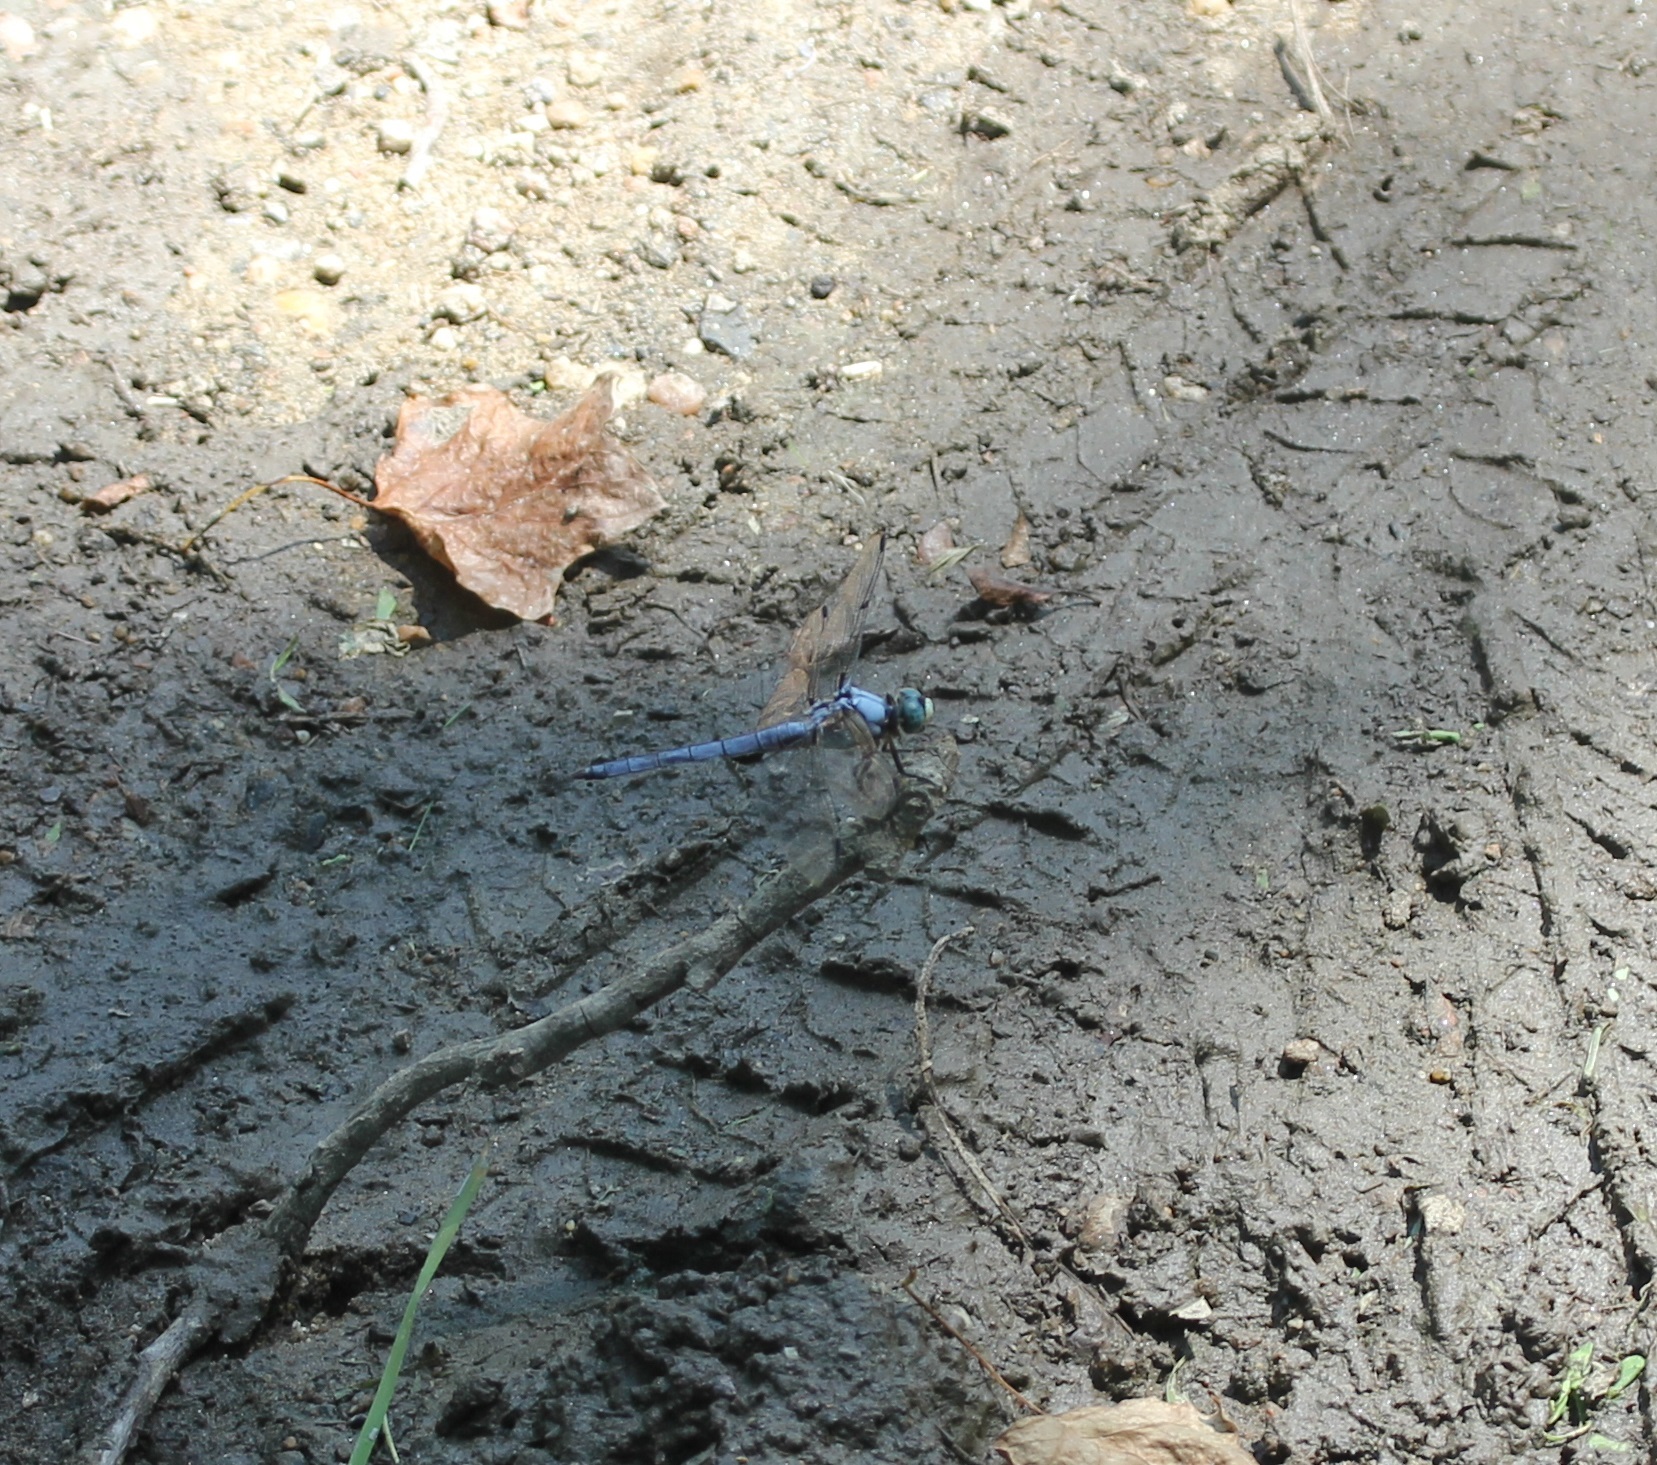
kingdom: Animalia
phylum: Arthropoda
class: Insecta
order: Odonata
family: Libellulidae
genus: Libellula
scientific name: Libellula vibrans
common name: Great blue skimmer
